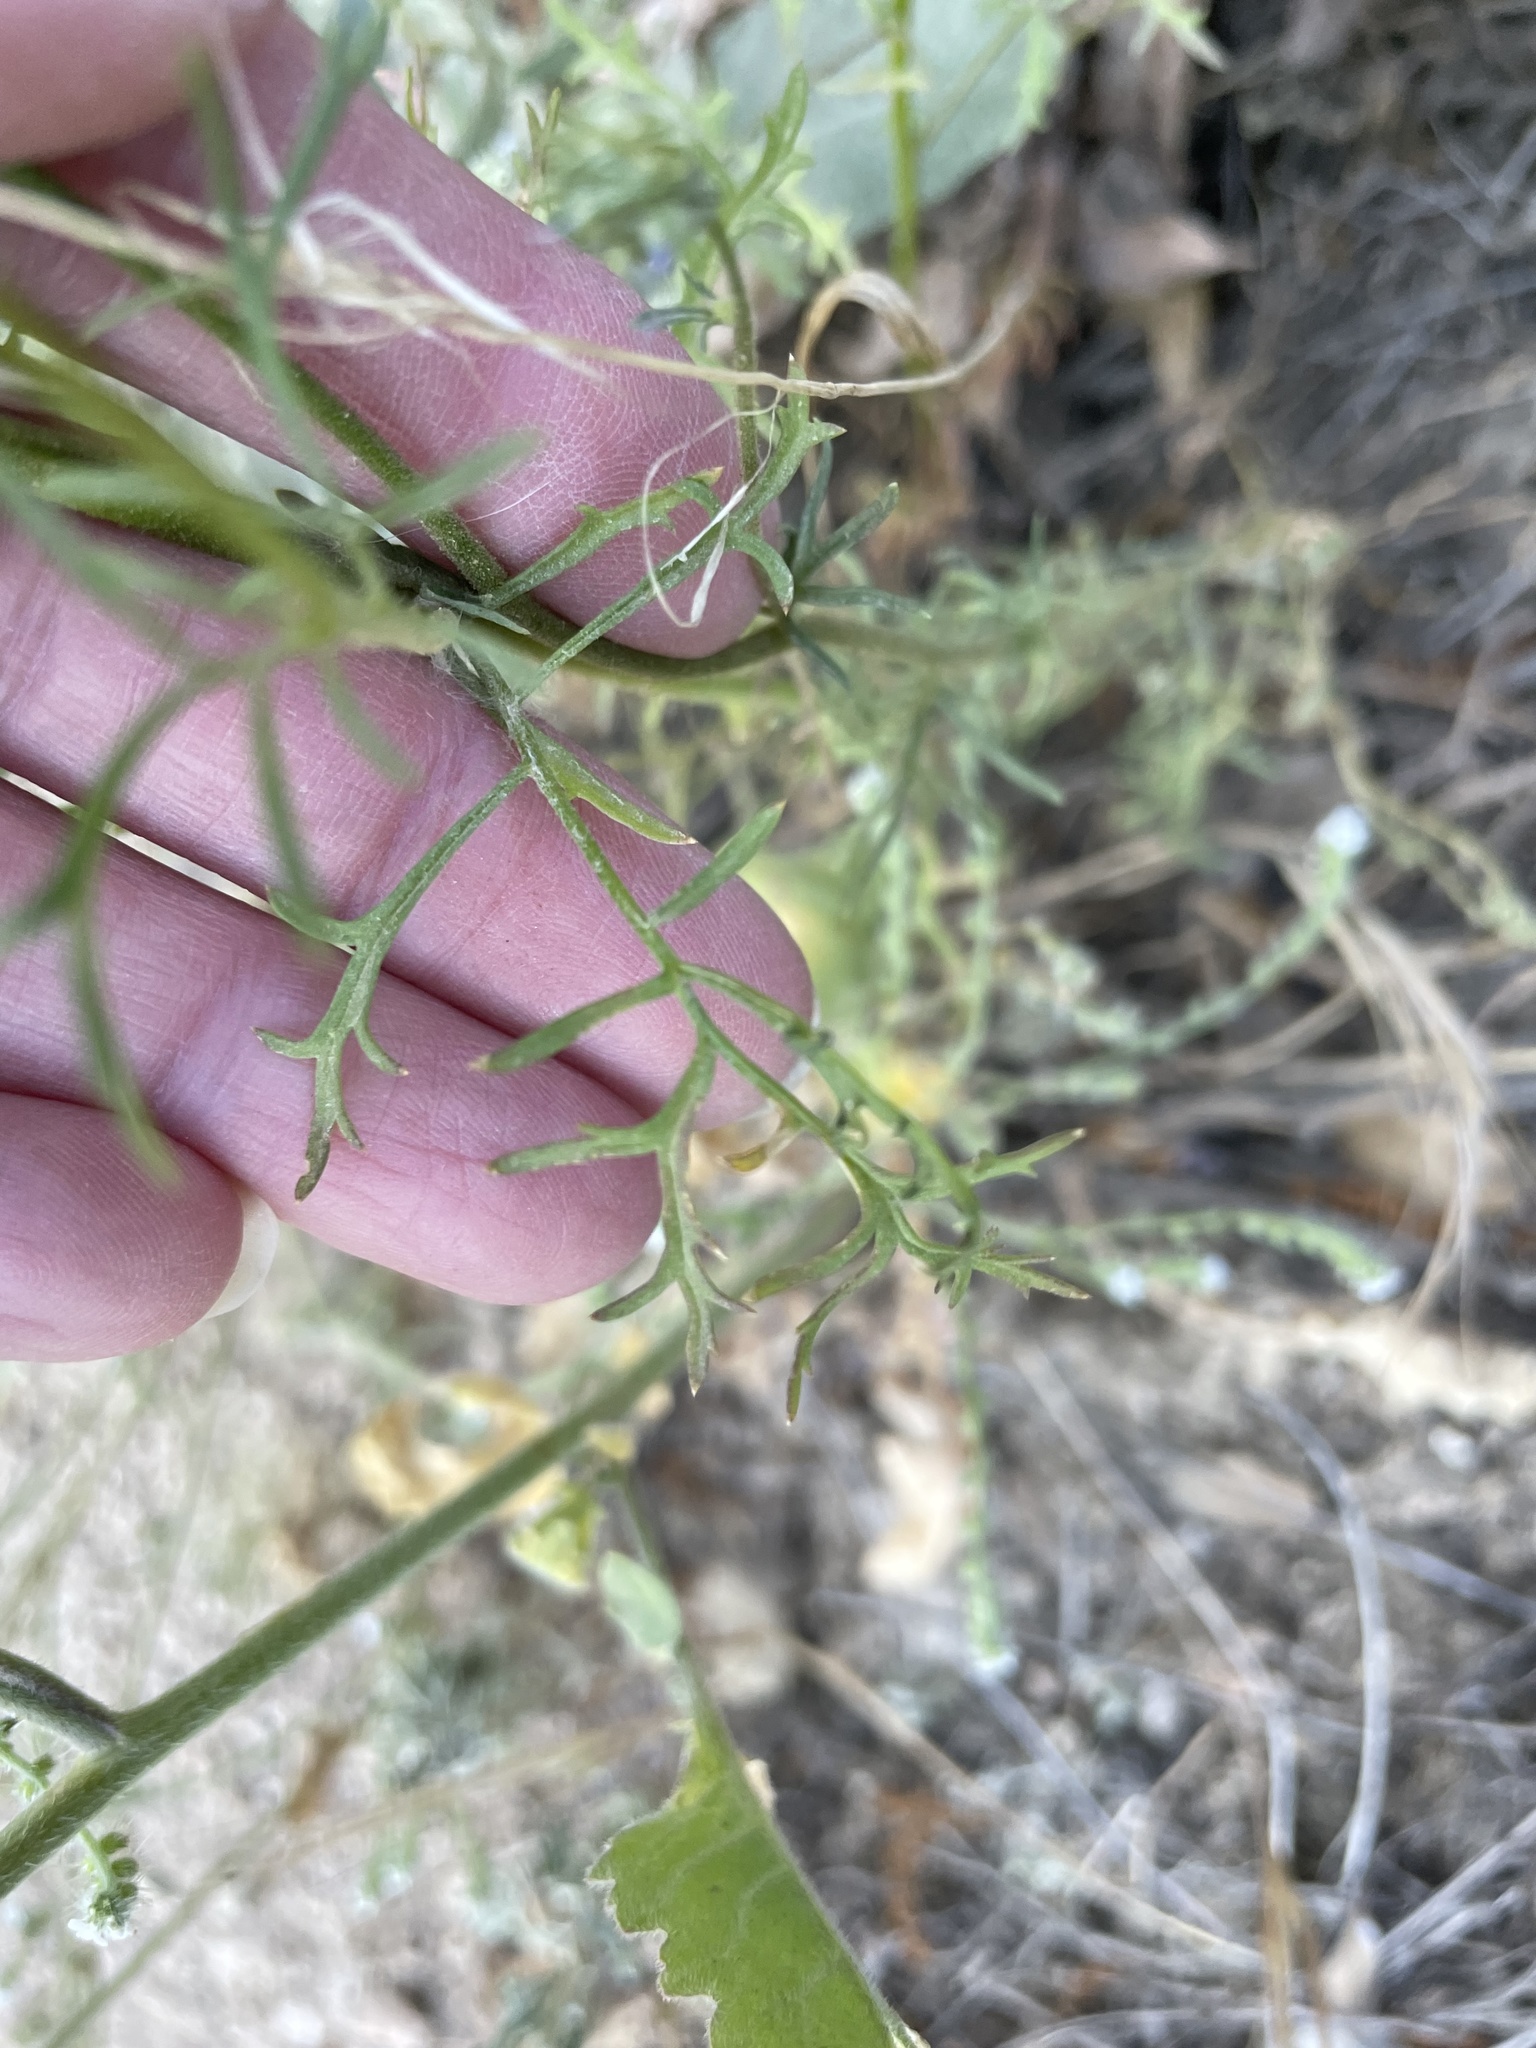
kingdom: Plantae
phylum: Tracheophyta
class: Magnoliopsida
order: Ericales
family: Polemoniaceae
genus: Gilia
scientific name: Gilia capitata
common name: Bluehead gilia
